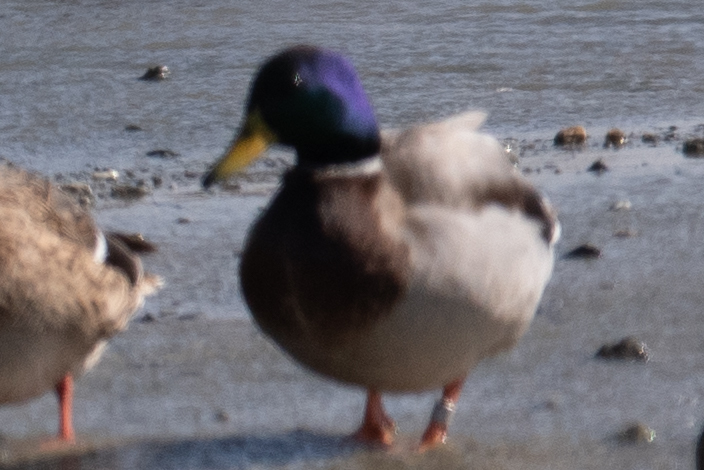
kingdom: Animalia
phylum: Chordata
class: Aves
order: Anseriformes
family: Anatidae
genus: Anas
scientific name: Anas platyrhynchos
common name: Mallard
